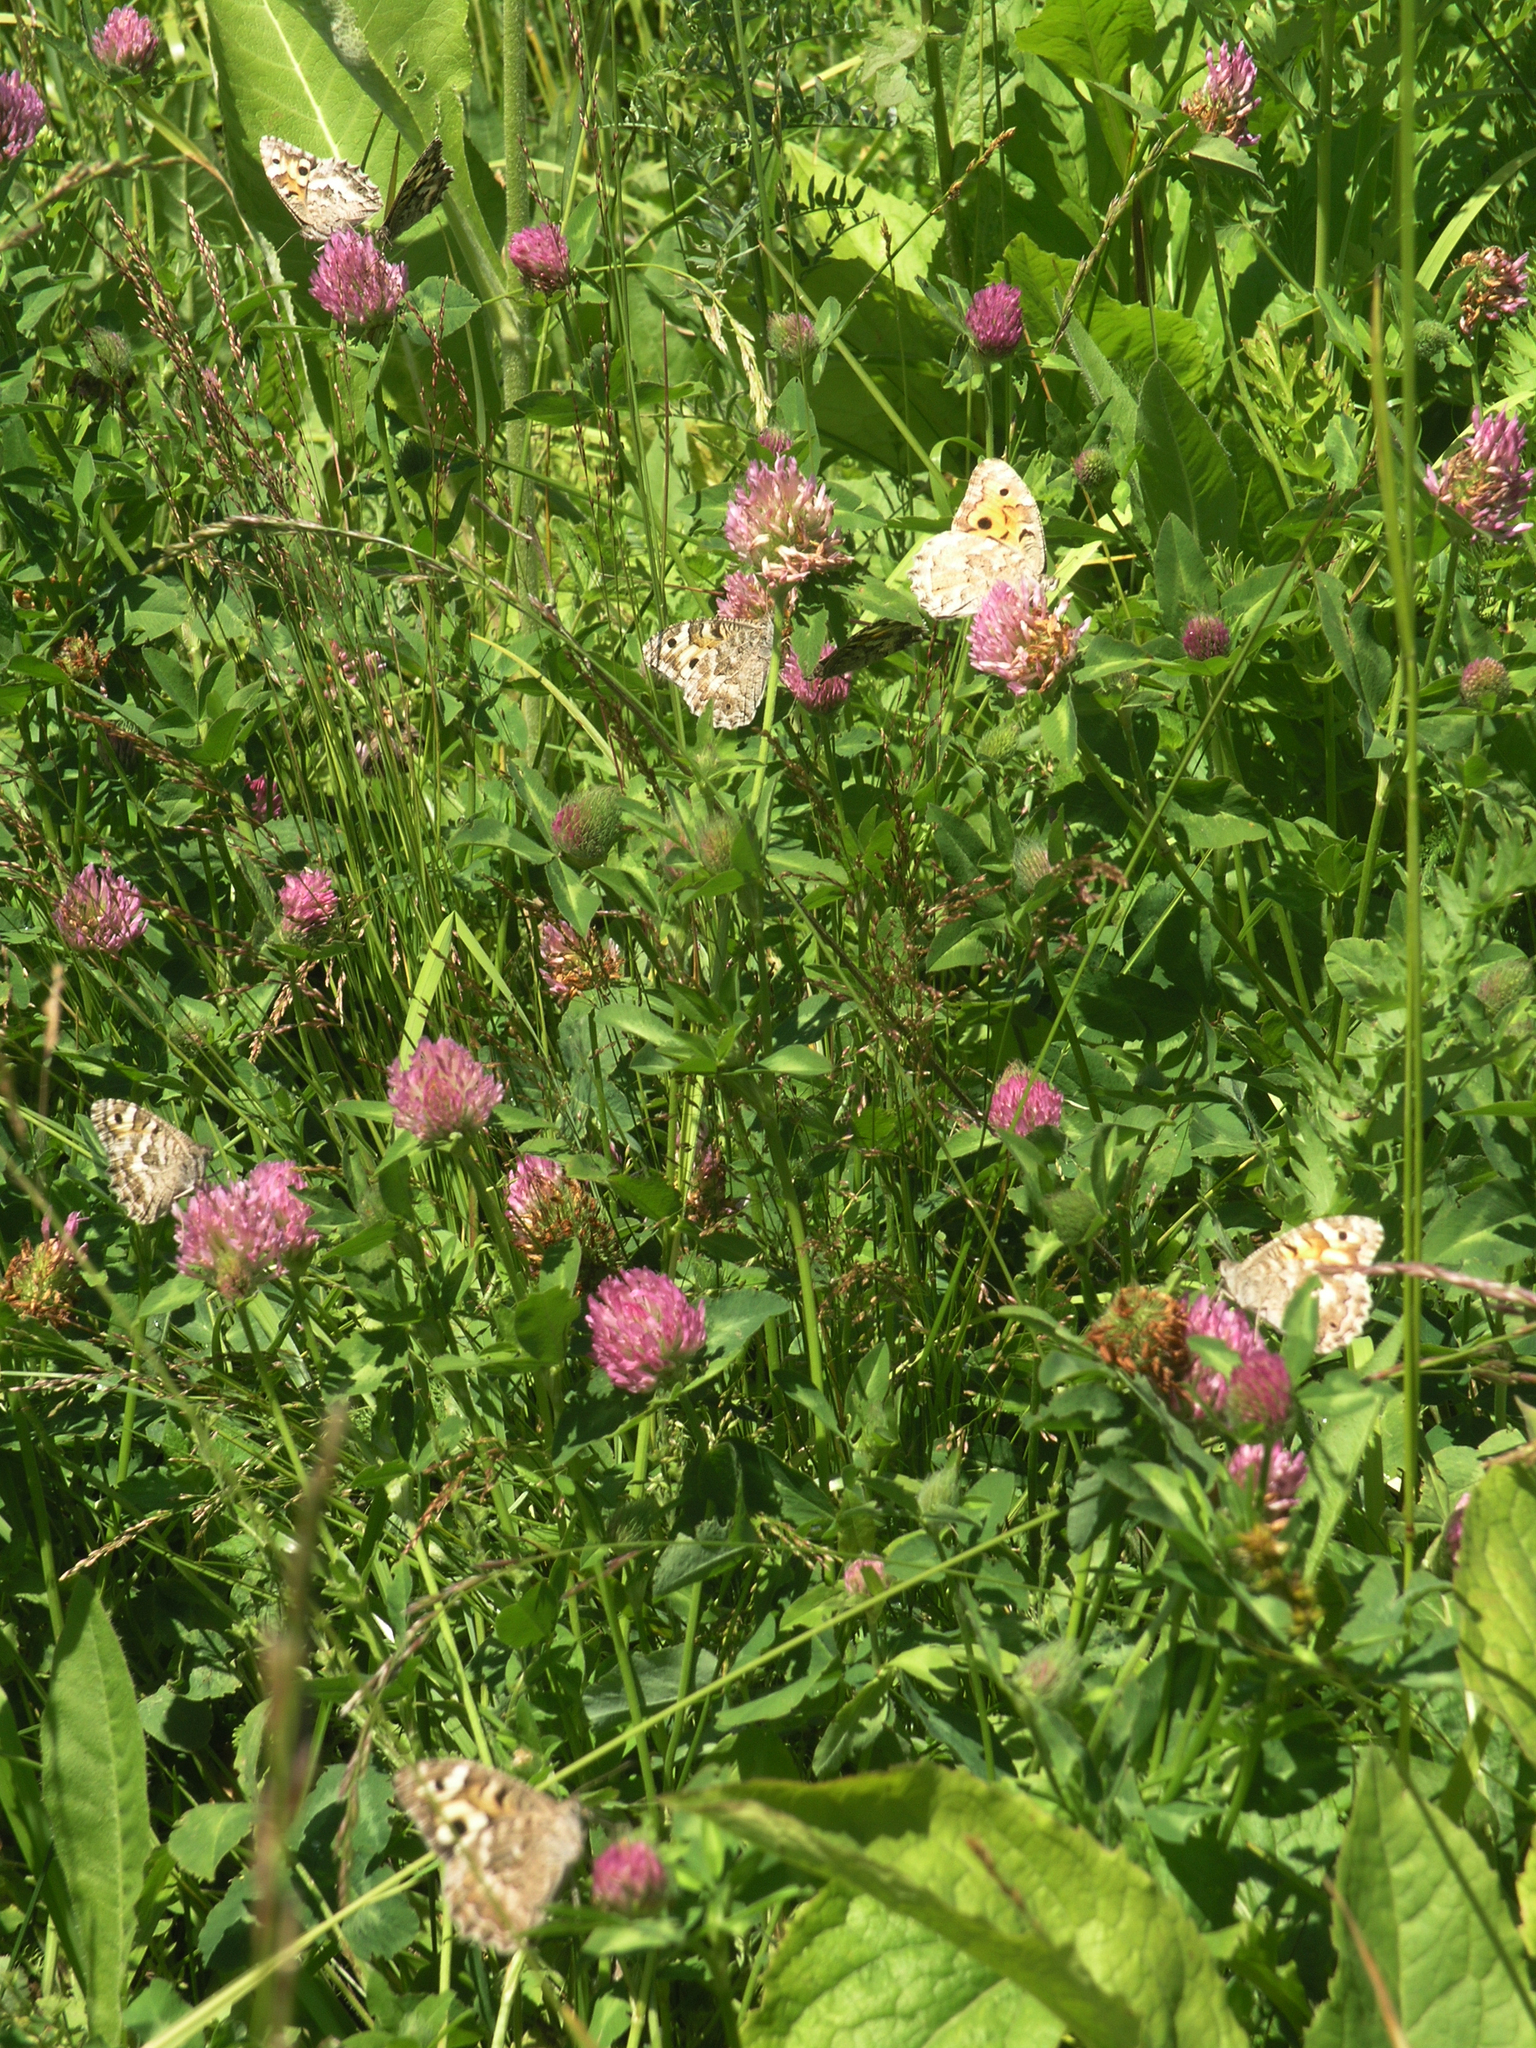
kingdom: Animalia
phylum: Arthropoda
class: Insecta
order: Lepidoptera
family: Nymphalidae
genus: Satyrus
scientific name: Satyrus Chazara enervata
